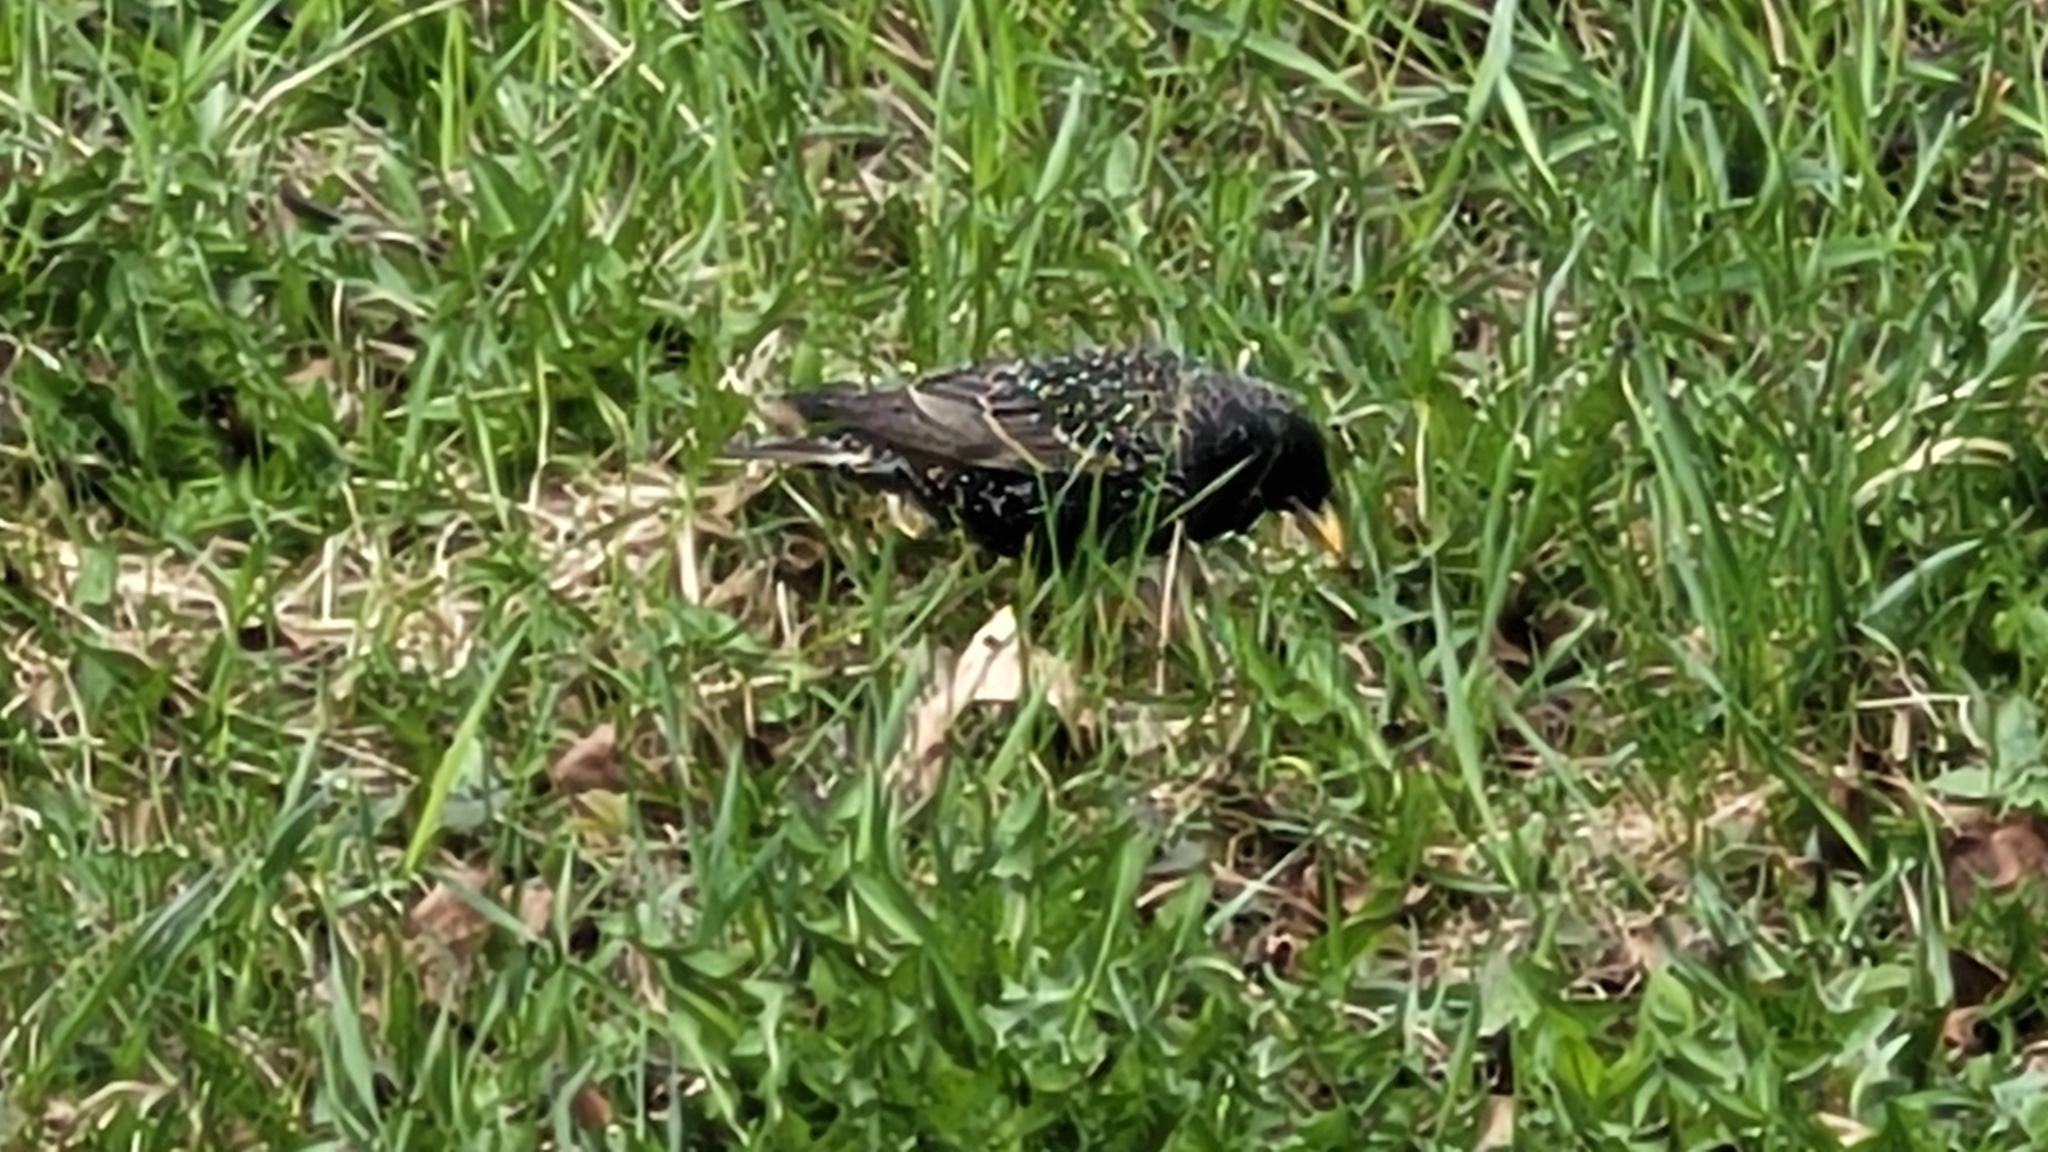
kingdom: Animalia
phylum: Chordata
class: Aves
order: Passeriformes
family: Sturnidae
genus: Sturnus
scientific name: Sturnus vulgaris
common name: Common starling
